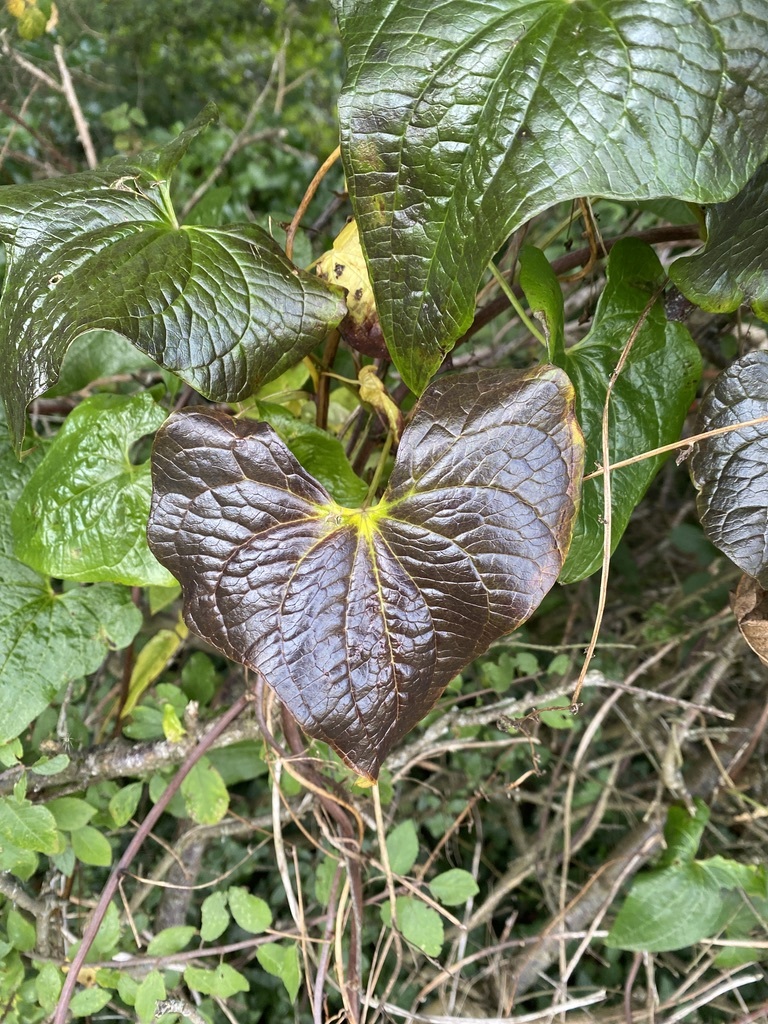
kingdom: Plantae
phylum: Tracheophyta
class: Liliopsida
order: Dioscoreales
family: Dioscoreaceae
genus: Dioscorea
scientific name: Dioscorea communis
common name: Black-bindweed
